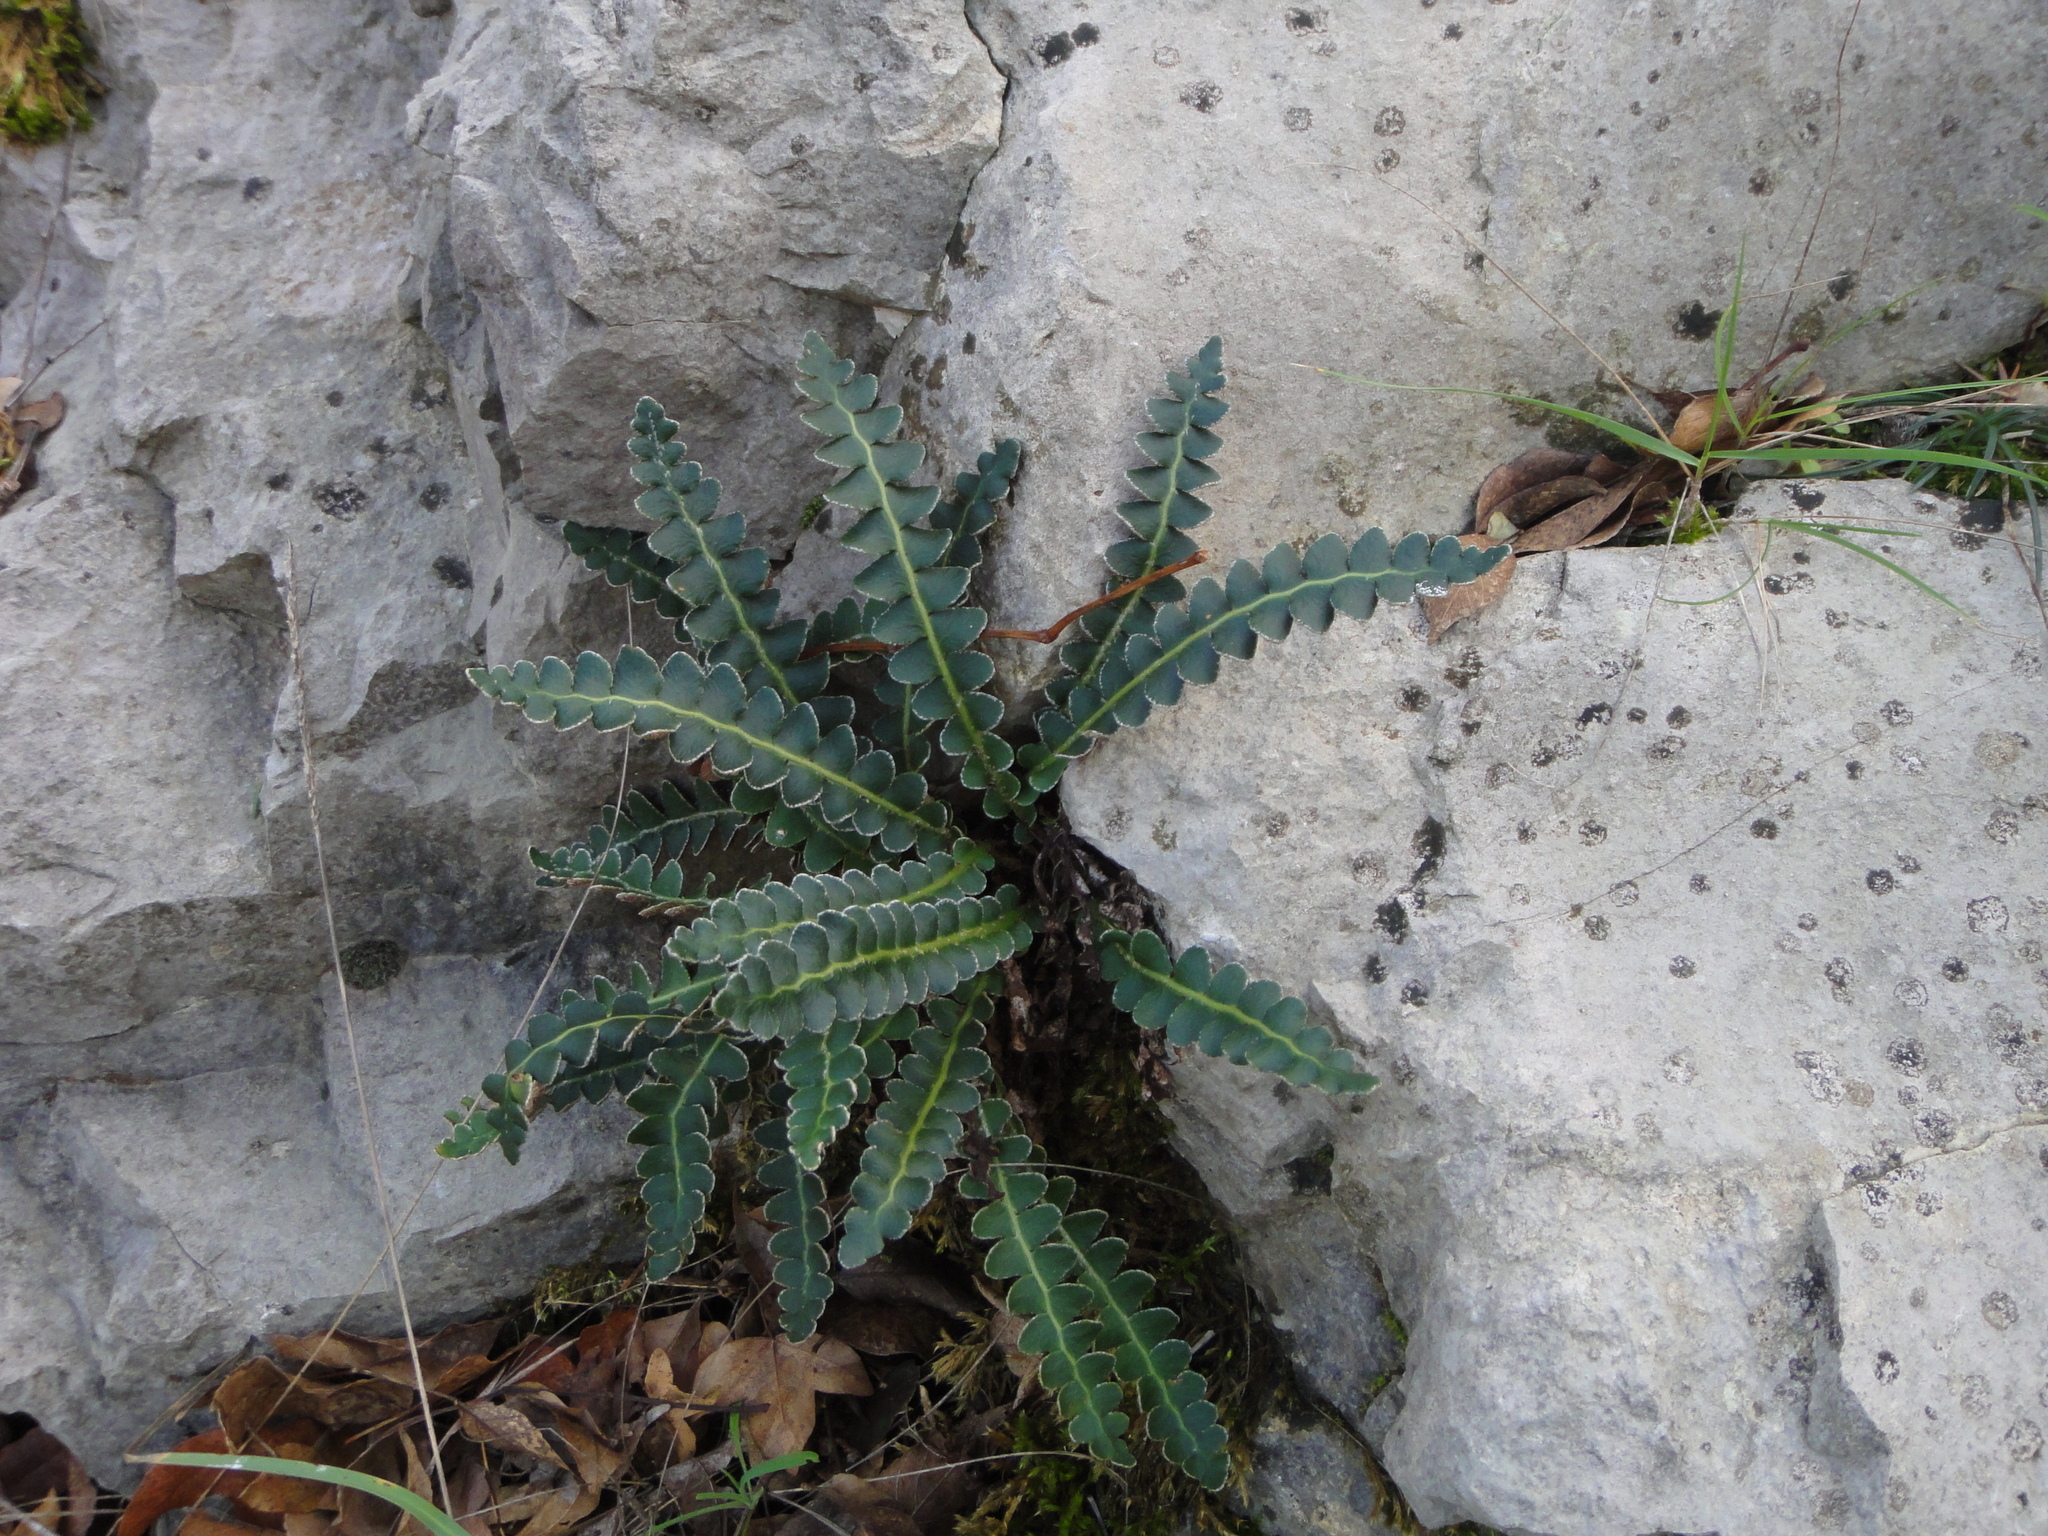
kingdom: Plantae
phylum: Tracheophyta
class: Polypodiopsida
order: Polypodiales
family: Aspleniaceae
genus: Asplenium
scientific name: Asplenium ceterach
